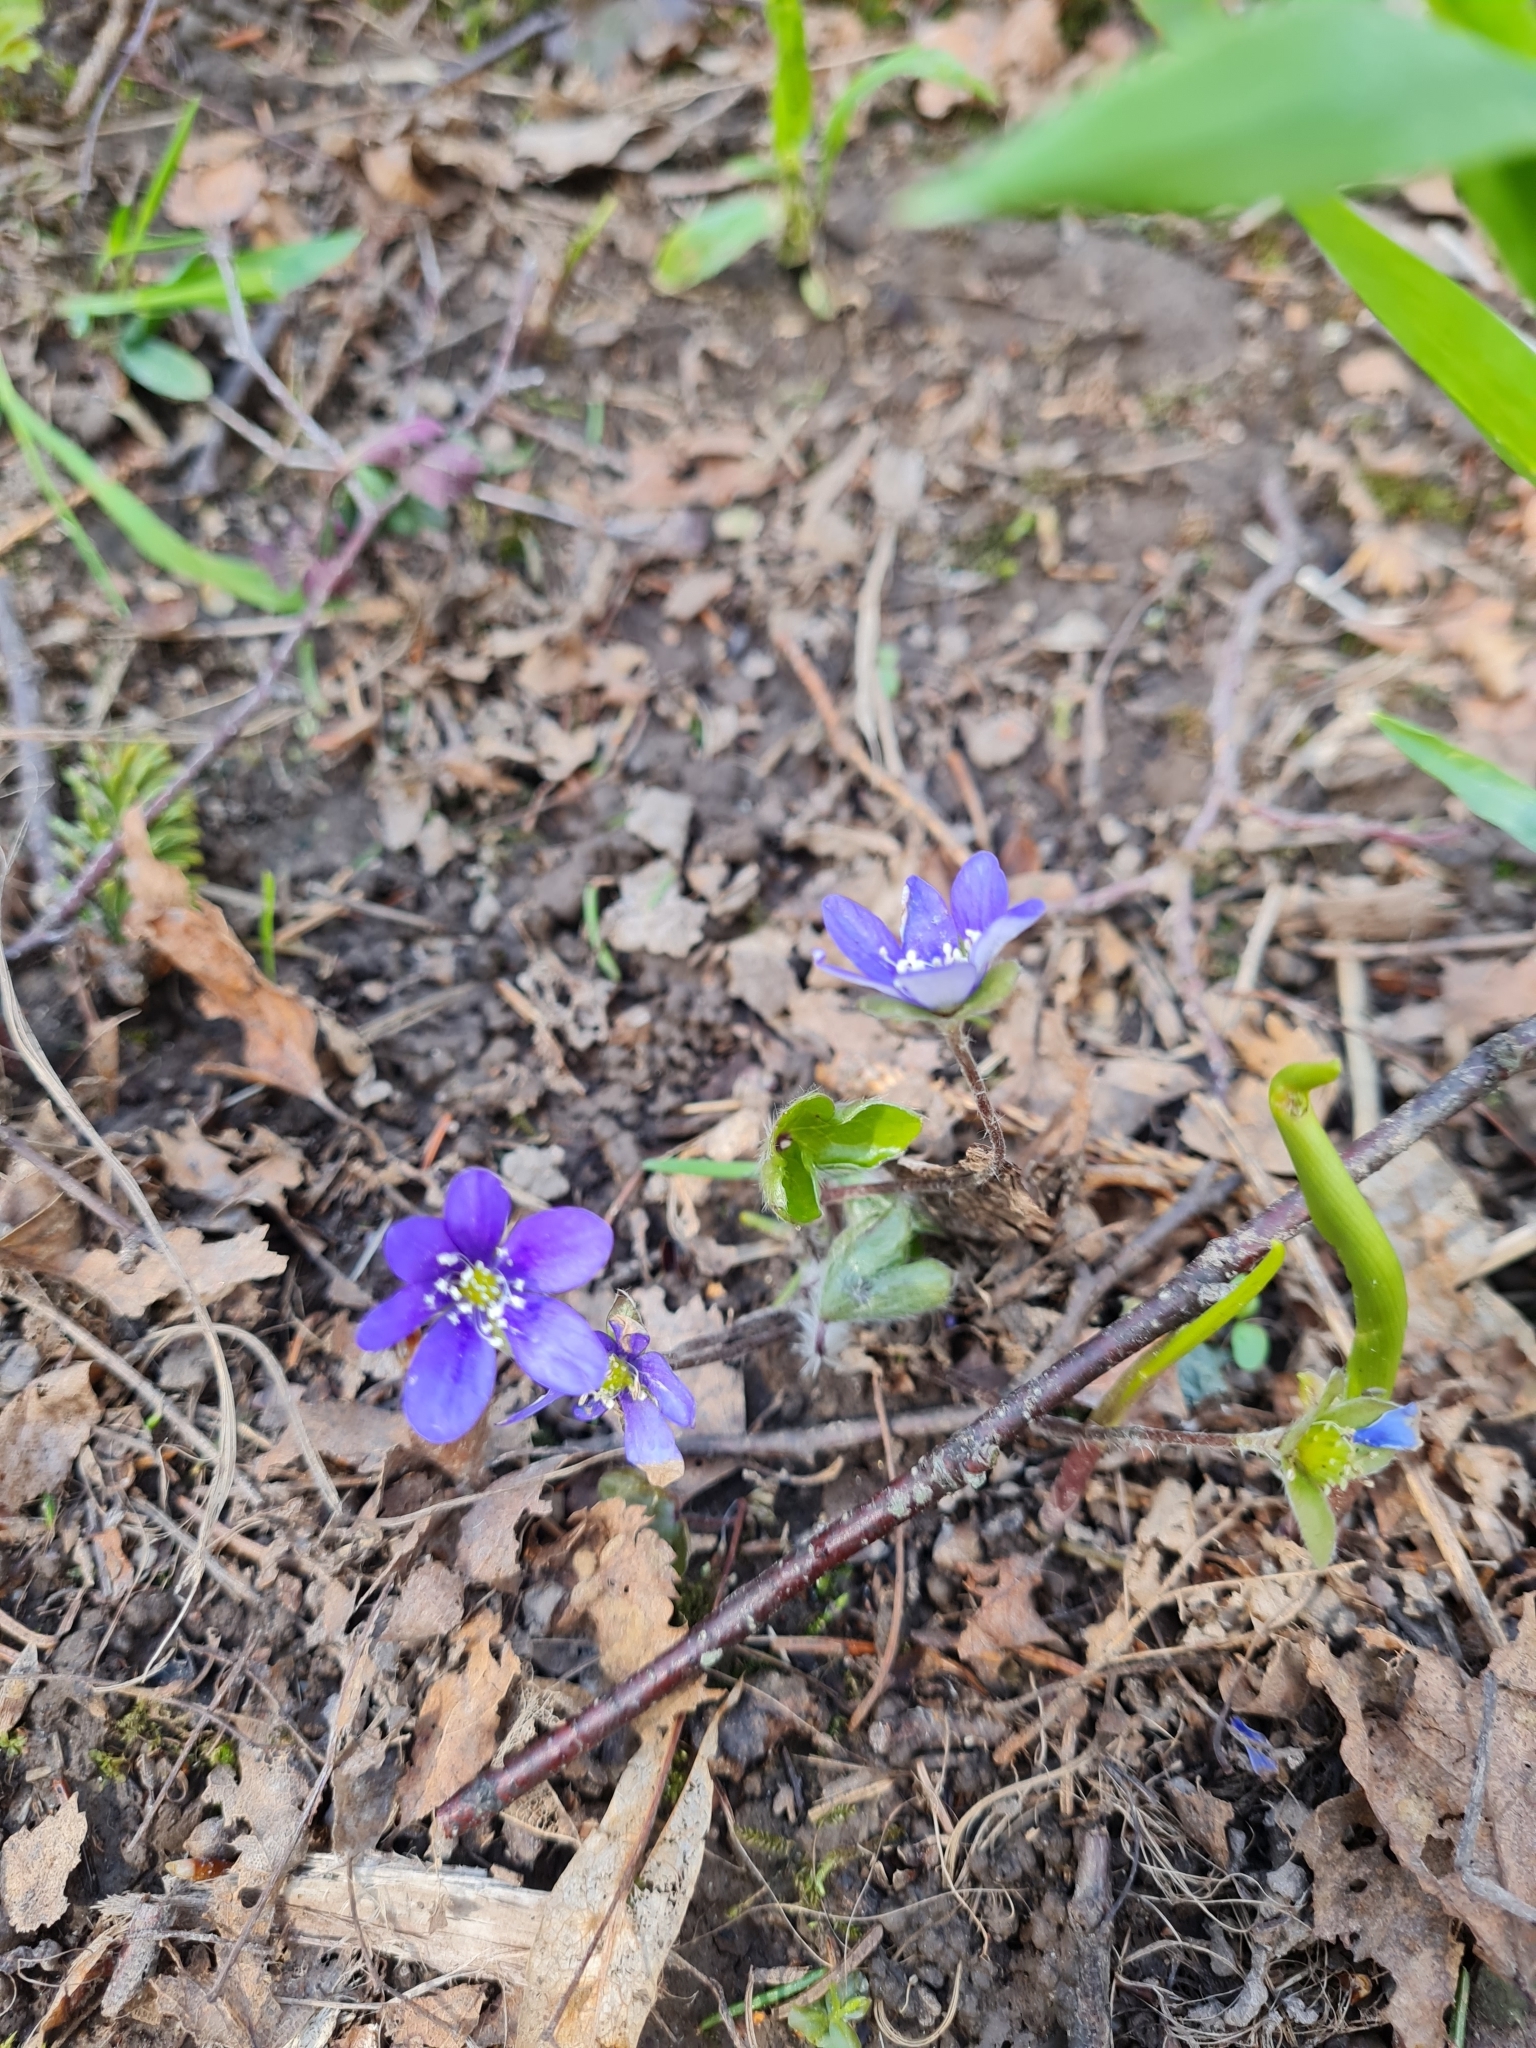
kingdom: Plantae
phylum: Tracheophyta
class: Magnoliopsida
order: Ranunculales
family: Ranunculaceae
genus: Hepatica
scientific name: Hepatica nobilis
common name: Liverleaf
